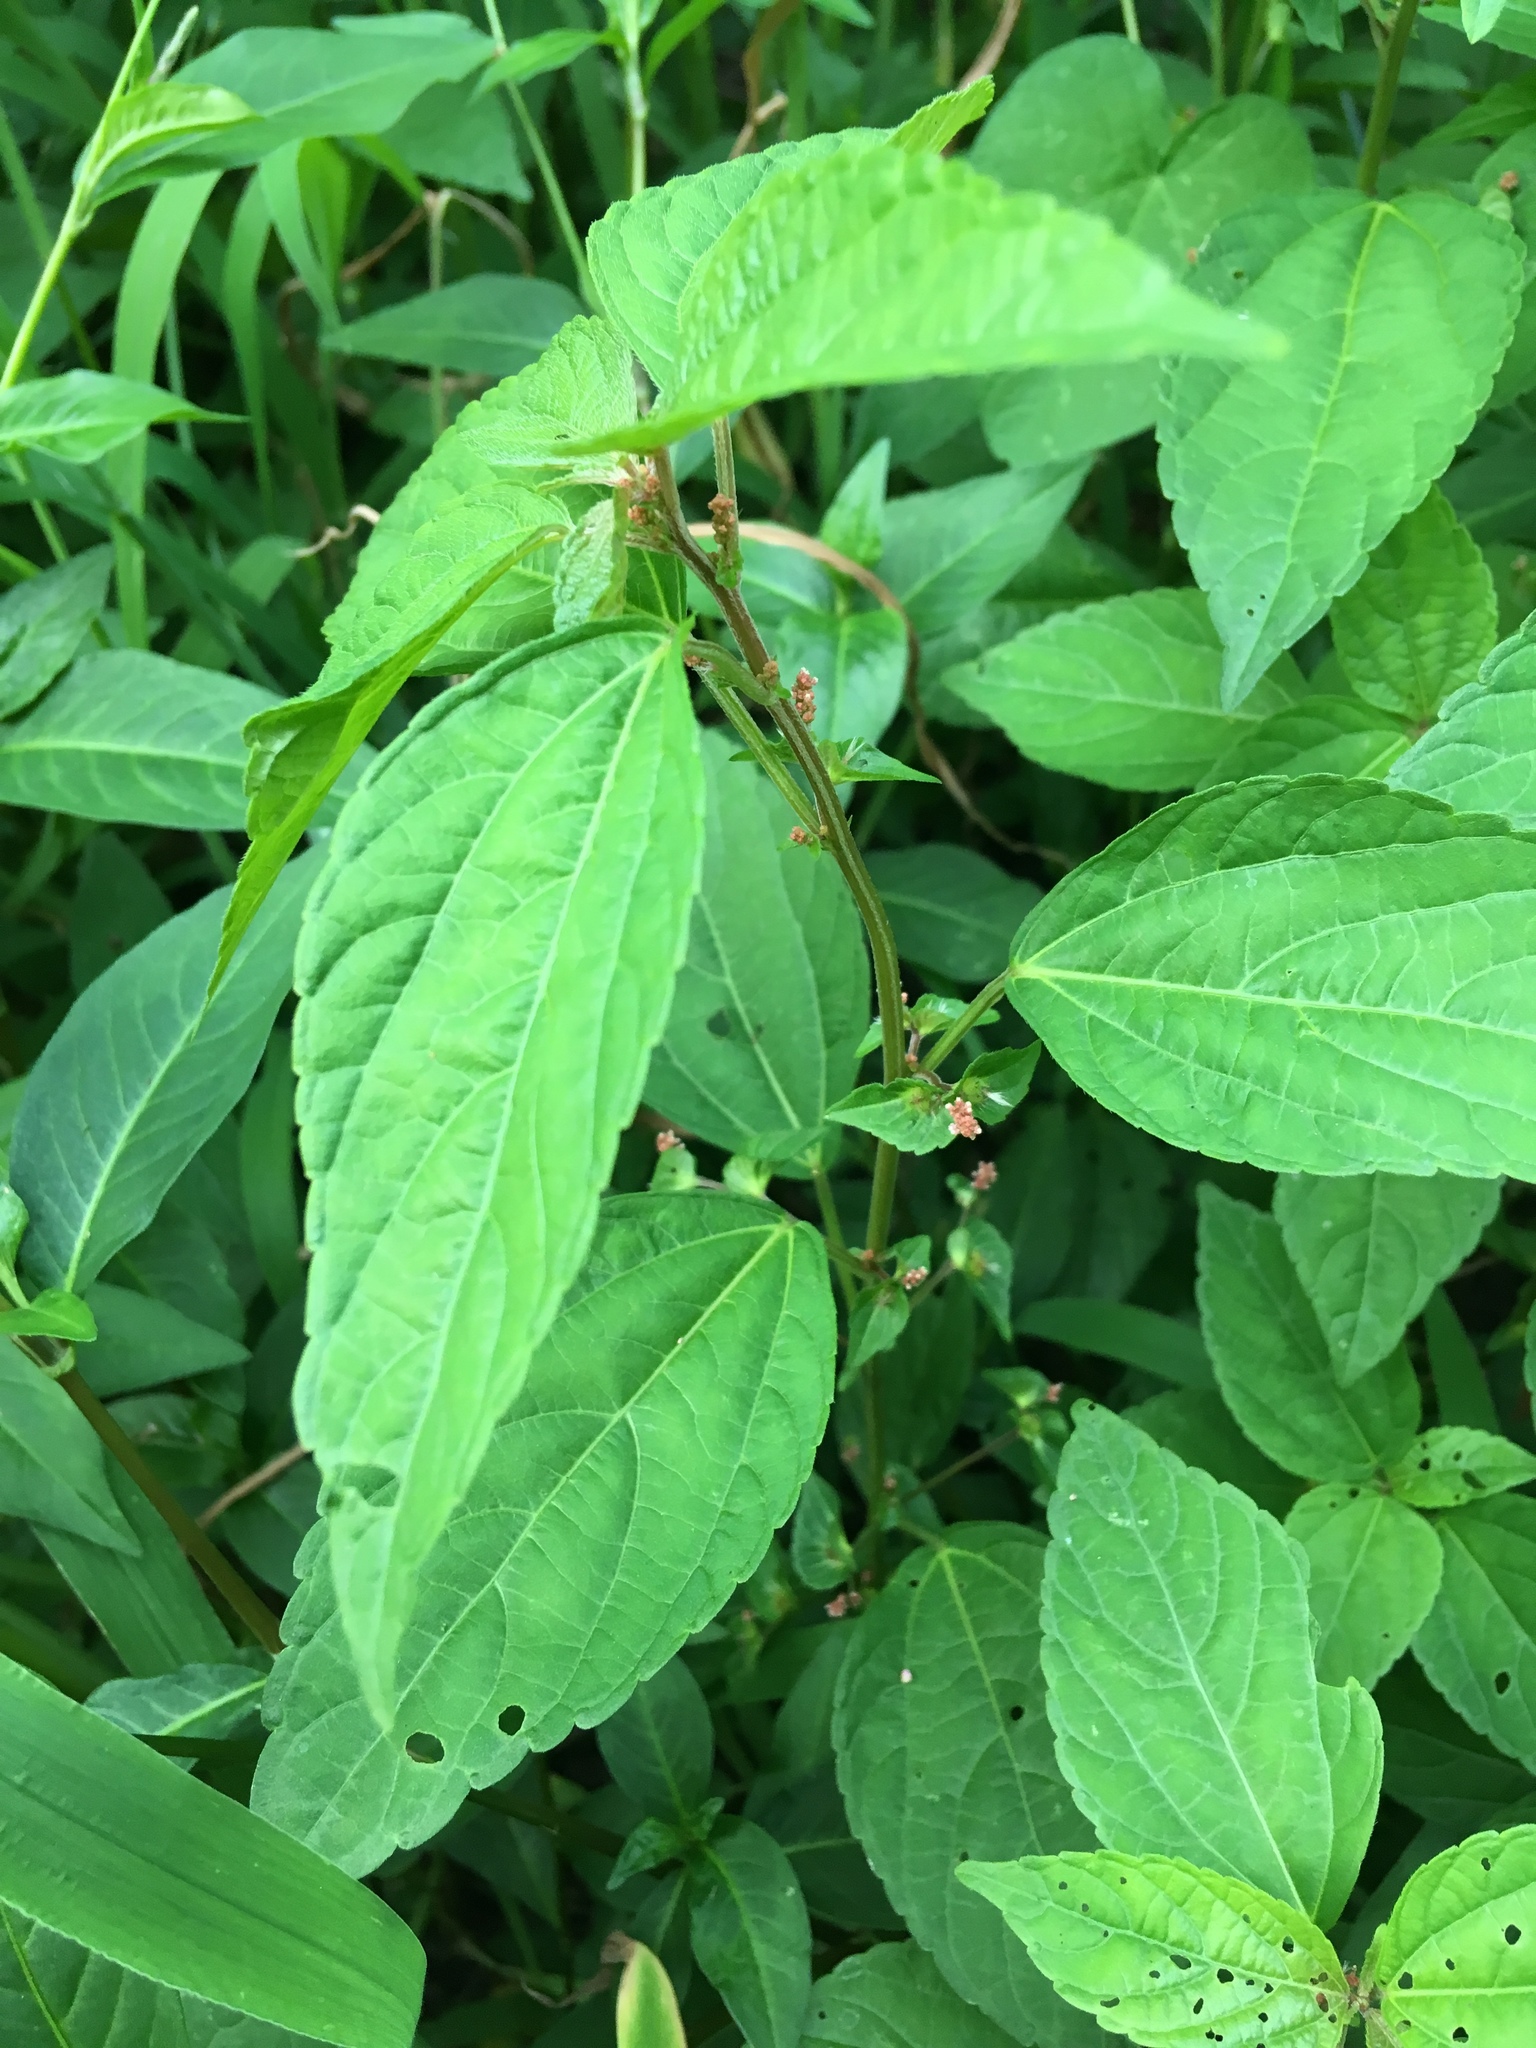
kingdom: Plantae
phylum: Tracheophyta
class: Magnoliopsida
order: Malpighiales
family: Euphorbiaceae
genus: Acalypha
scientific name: Acalypha australis
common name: Asian copperleaf
